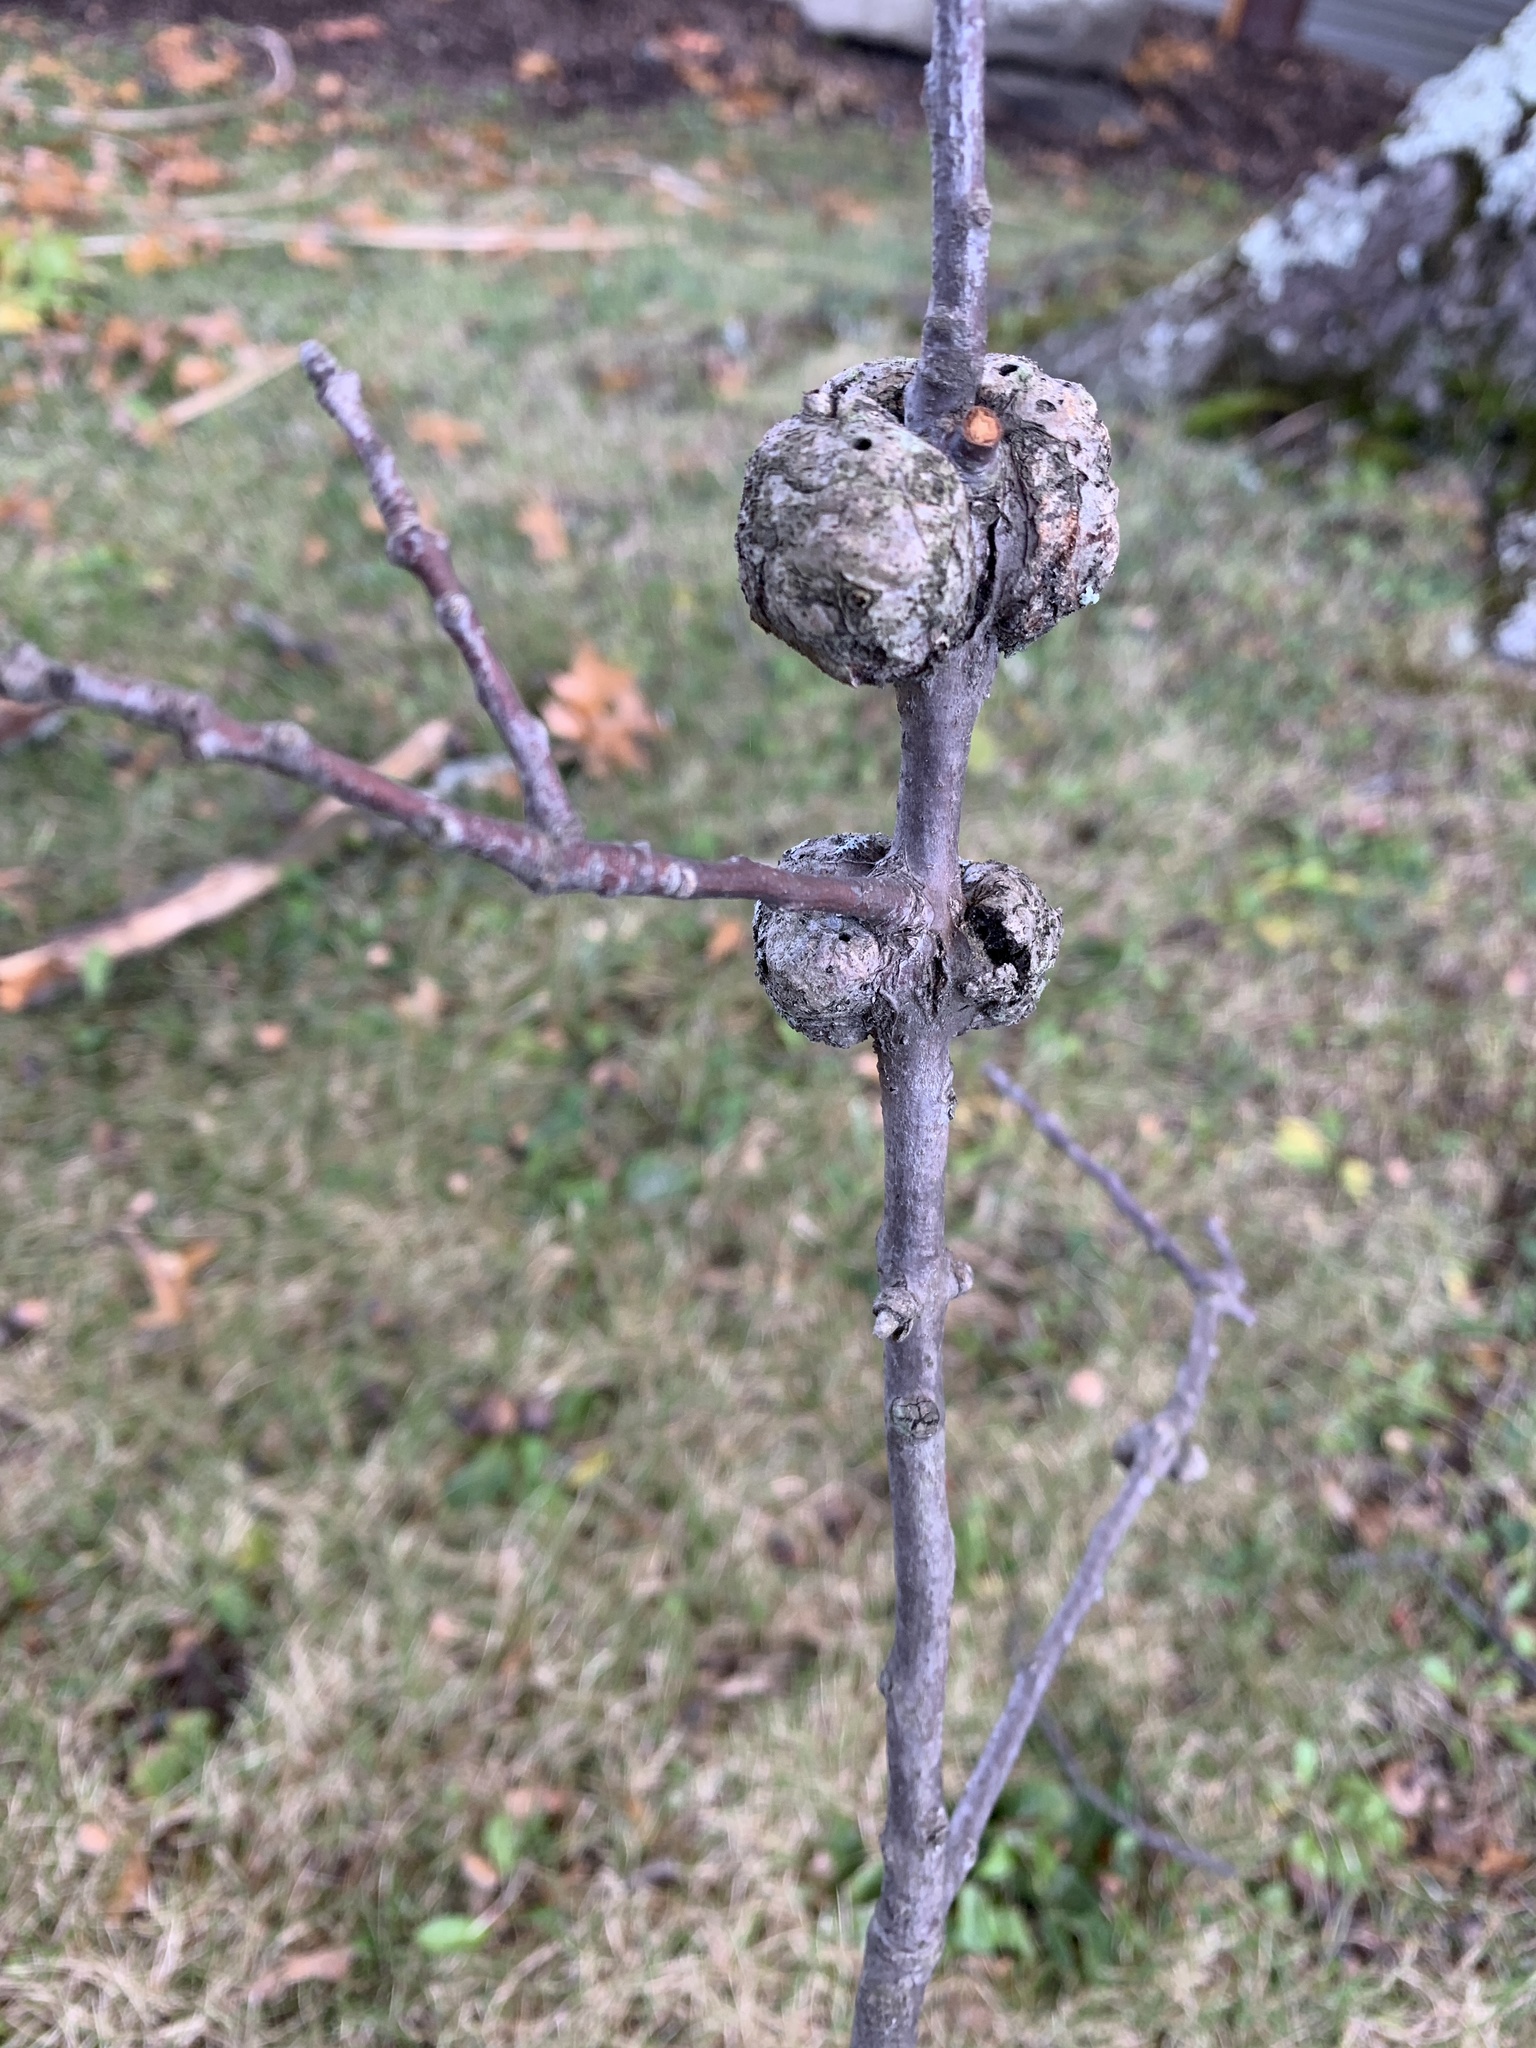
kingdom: Animalia
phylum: Arthropoda
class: Insecta
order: Hymenoptera
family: Cynipidae
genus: Callirhytis
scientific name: Callirhytis
